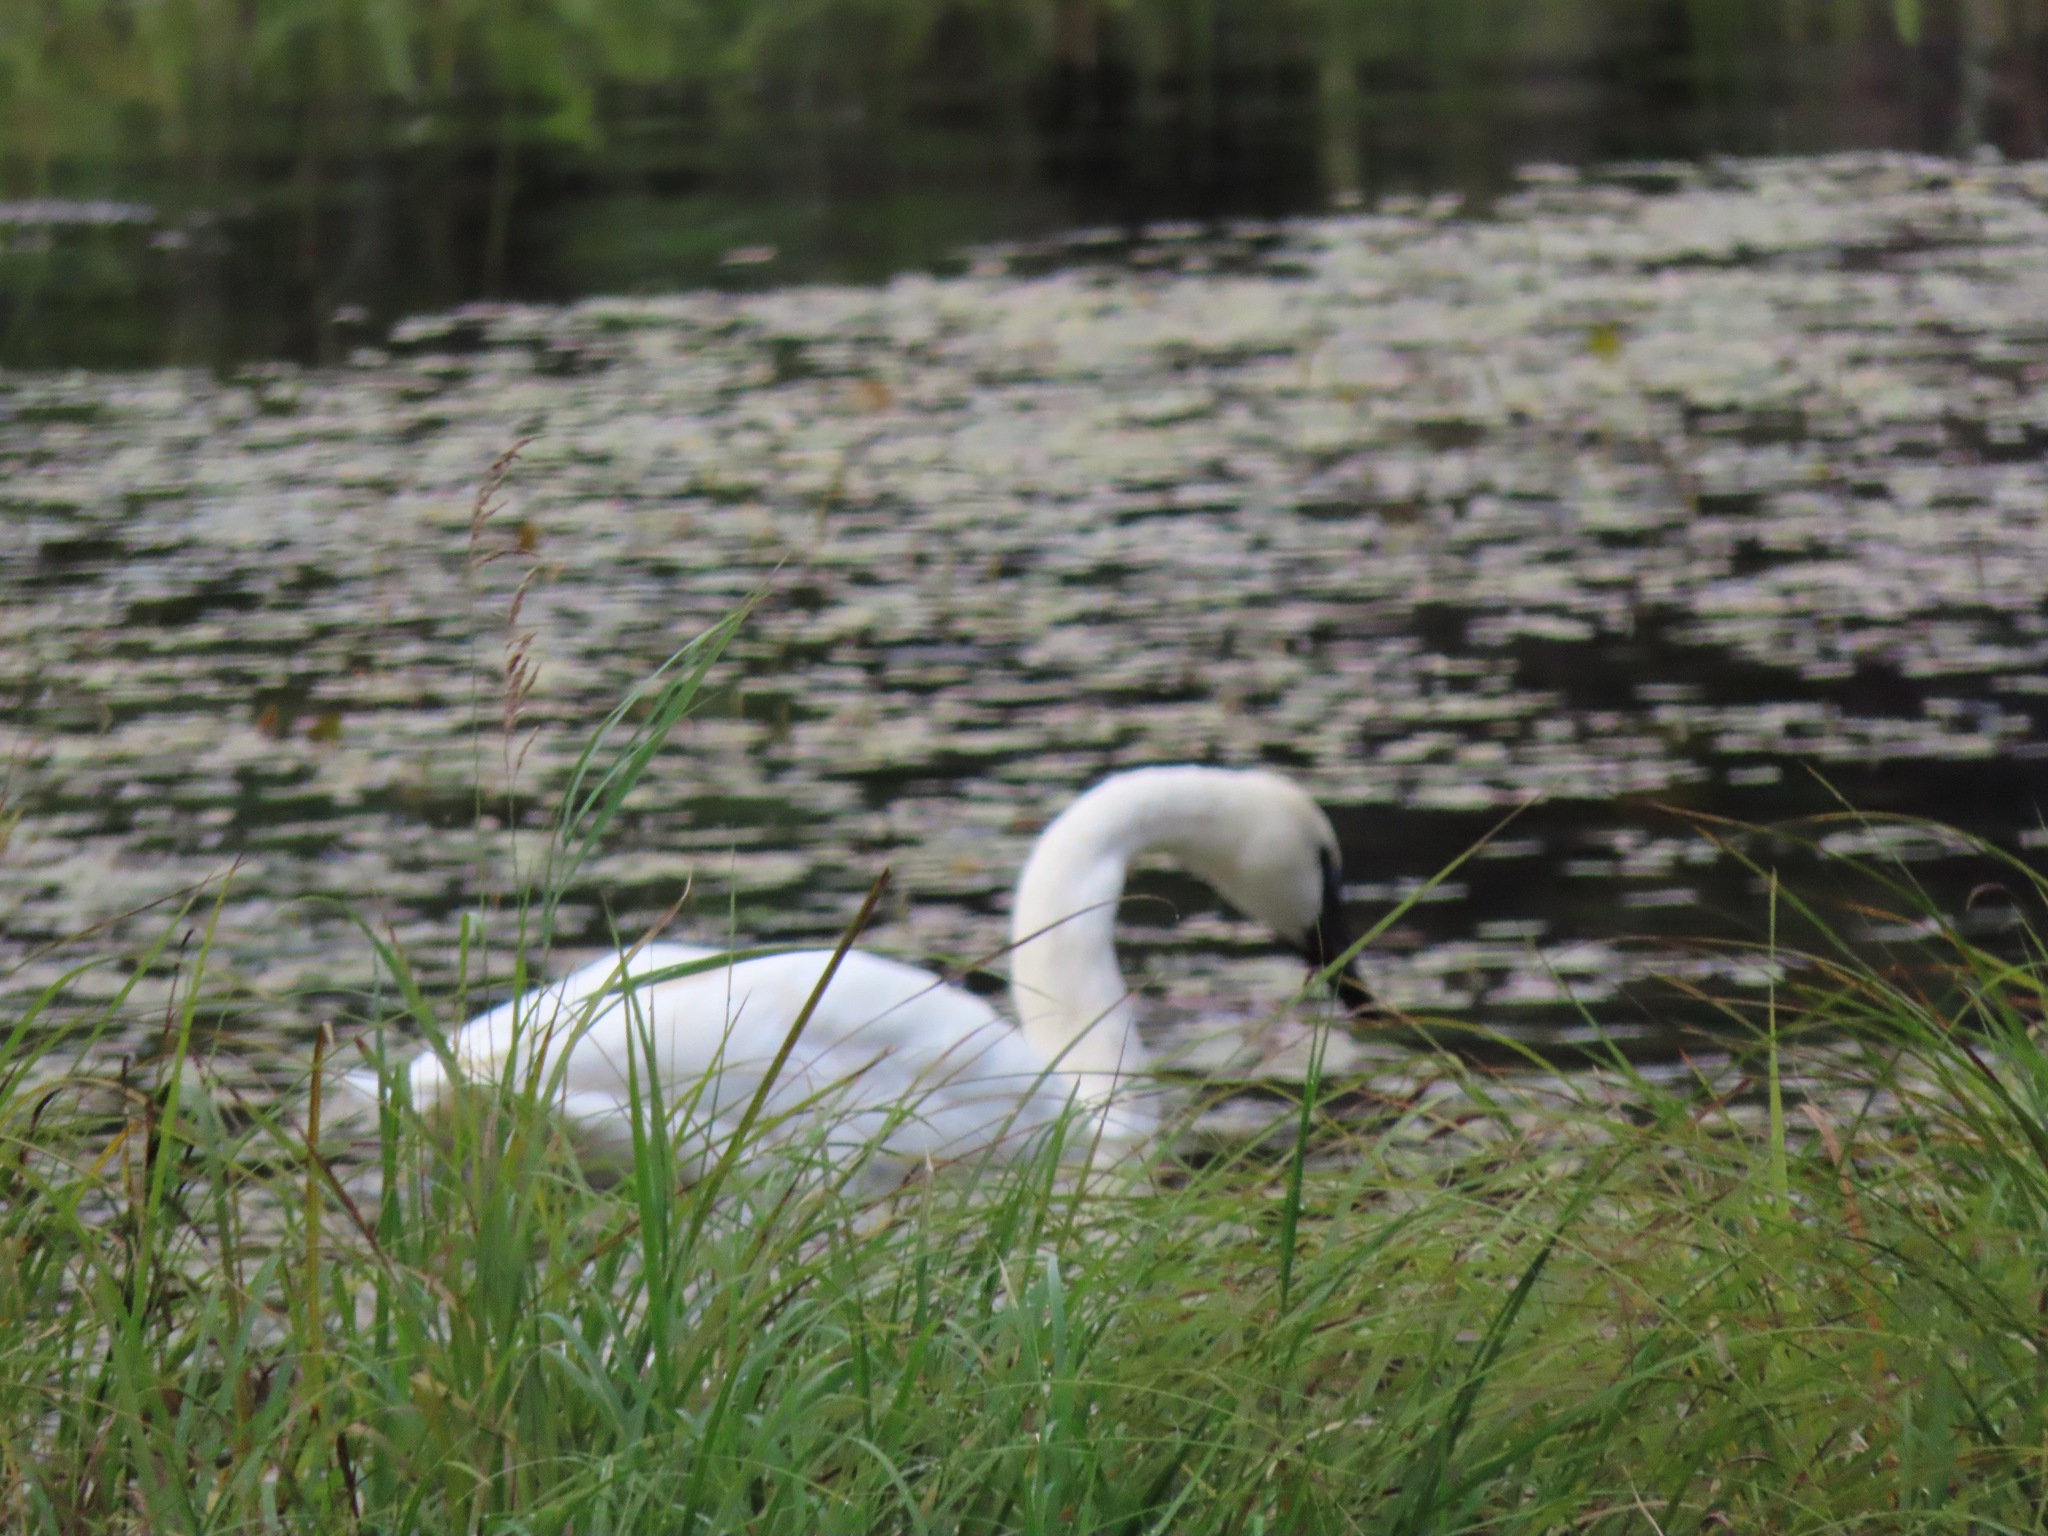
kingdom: Animalia
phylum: Chordata
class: Aves
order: Anseriformes
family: Anatidae
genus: Cygnus
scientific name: Cygnus buccinator
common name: Trumpeter swan
